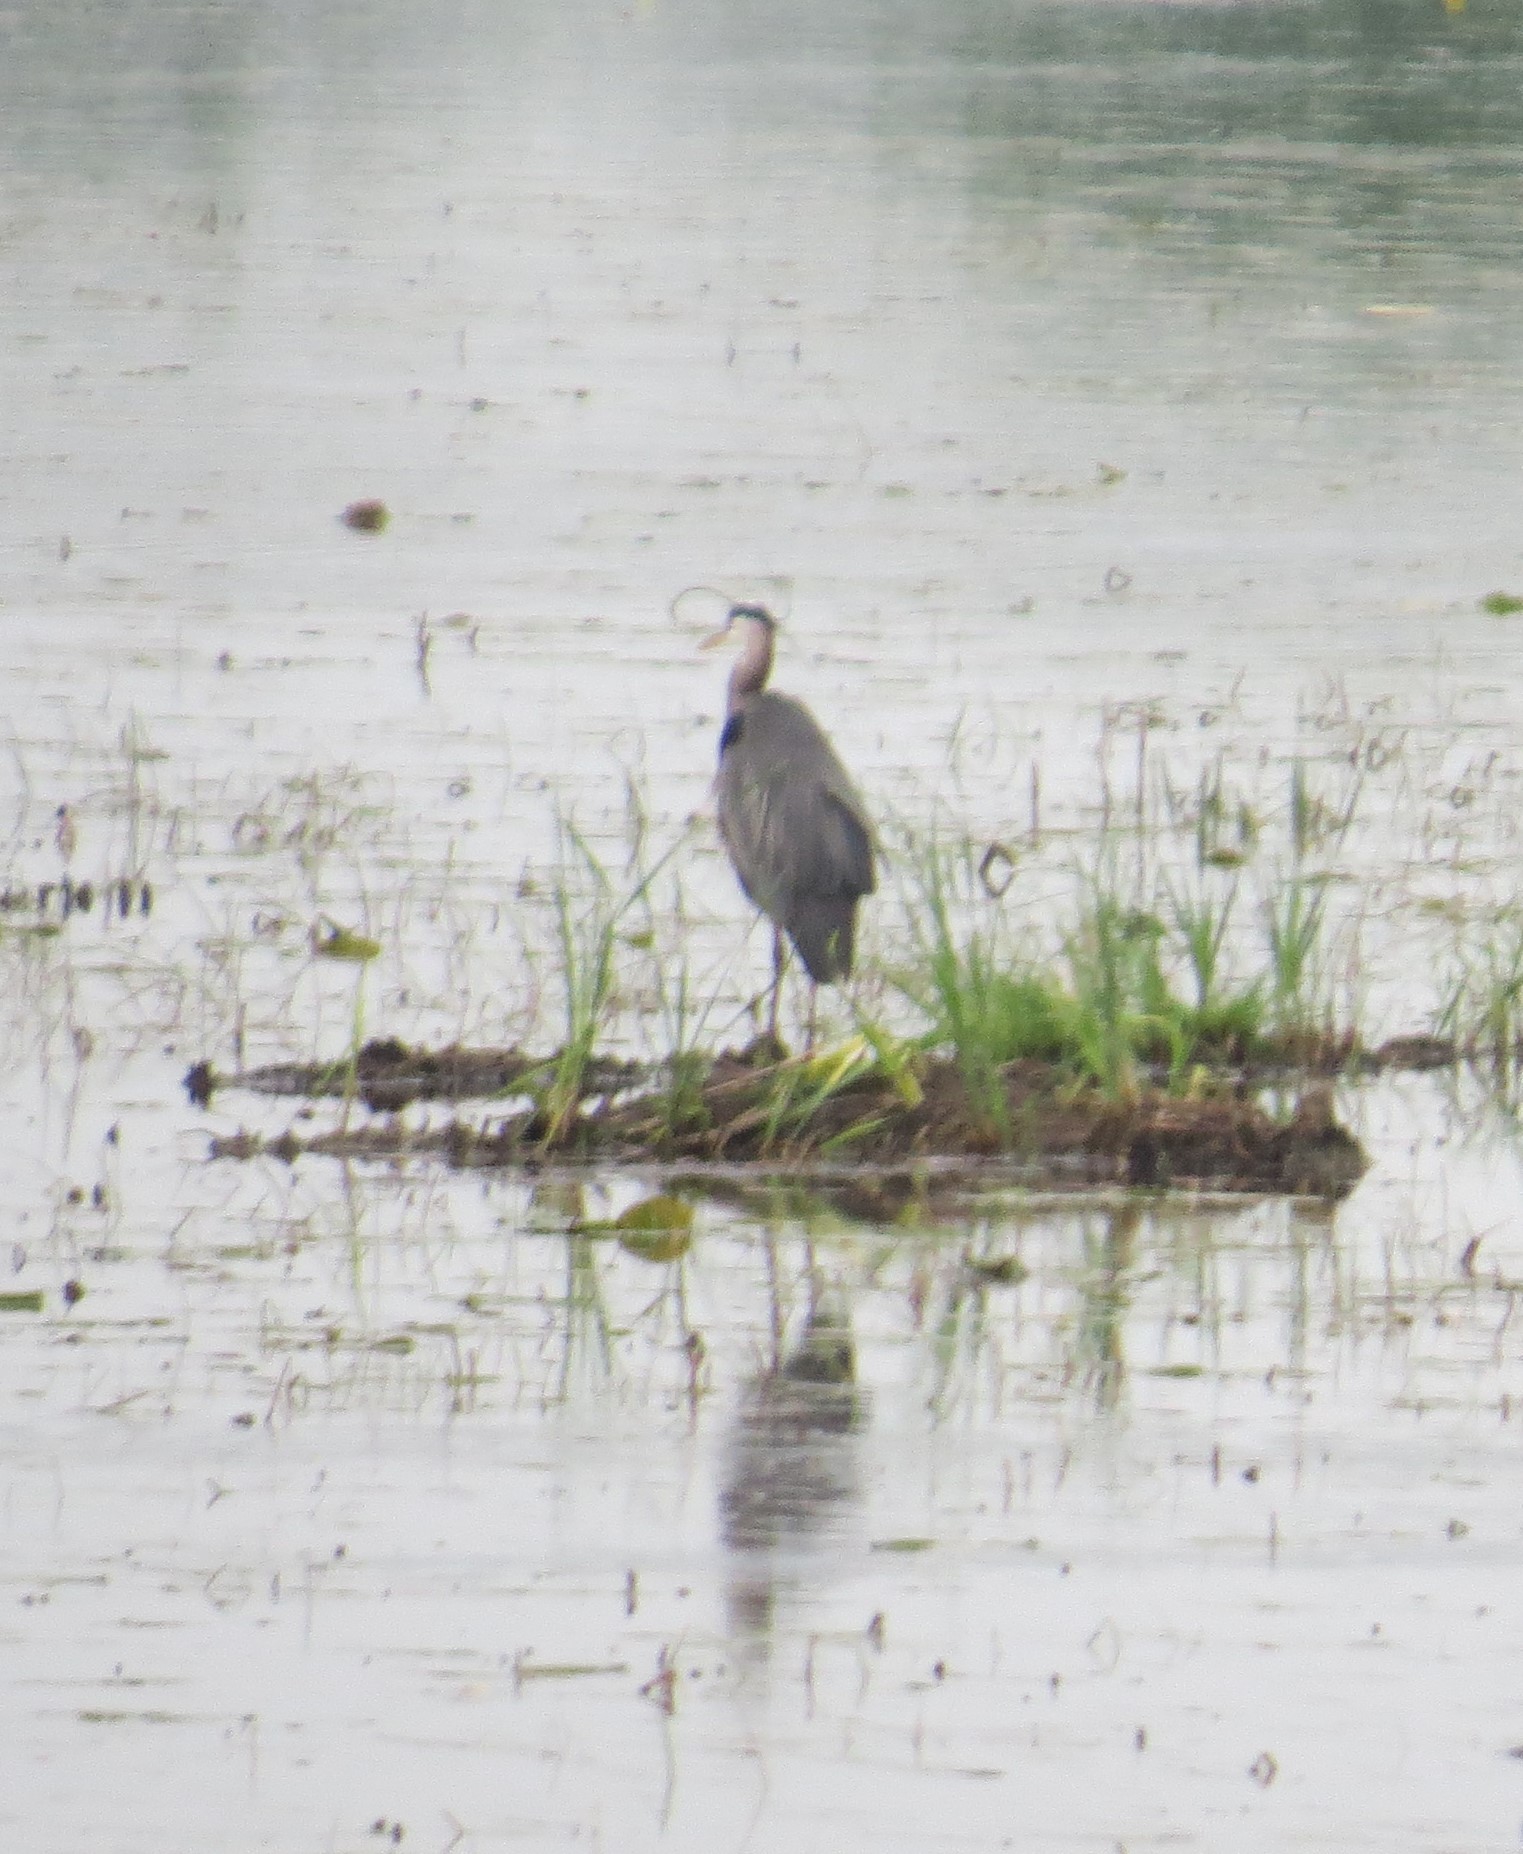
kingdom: Animalia
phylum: Chordata
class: Aves
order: Pelecaniformes
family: Ardeidae
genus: Ardea
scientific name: Ardea herodias
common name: Great blue heron
